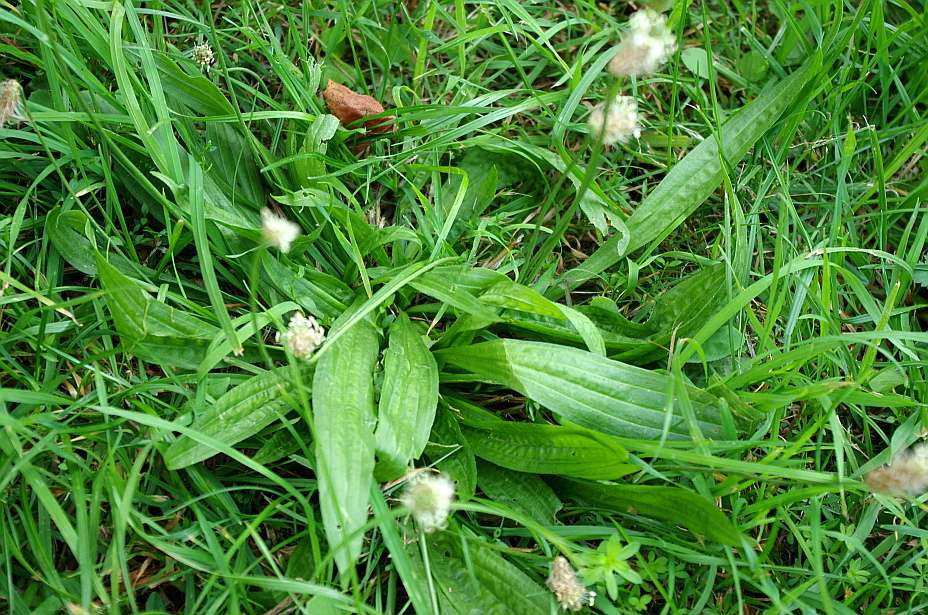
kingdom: Plantae
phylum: Tracheophyta
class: Magnoliopsida
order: Lamiales
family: Plantaginaceae
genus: Plantago
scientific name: Plantago lanceolata
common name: Ribwort plantain
